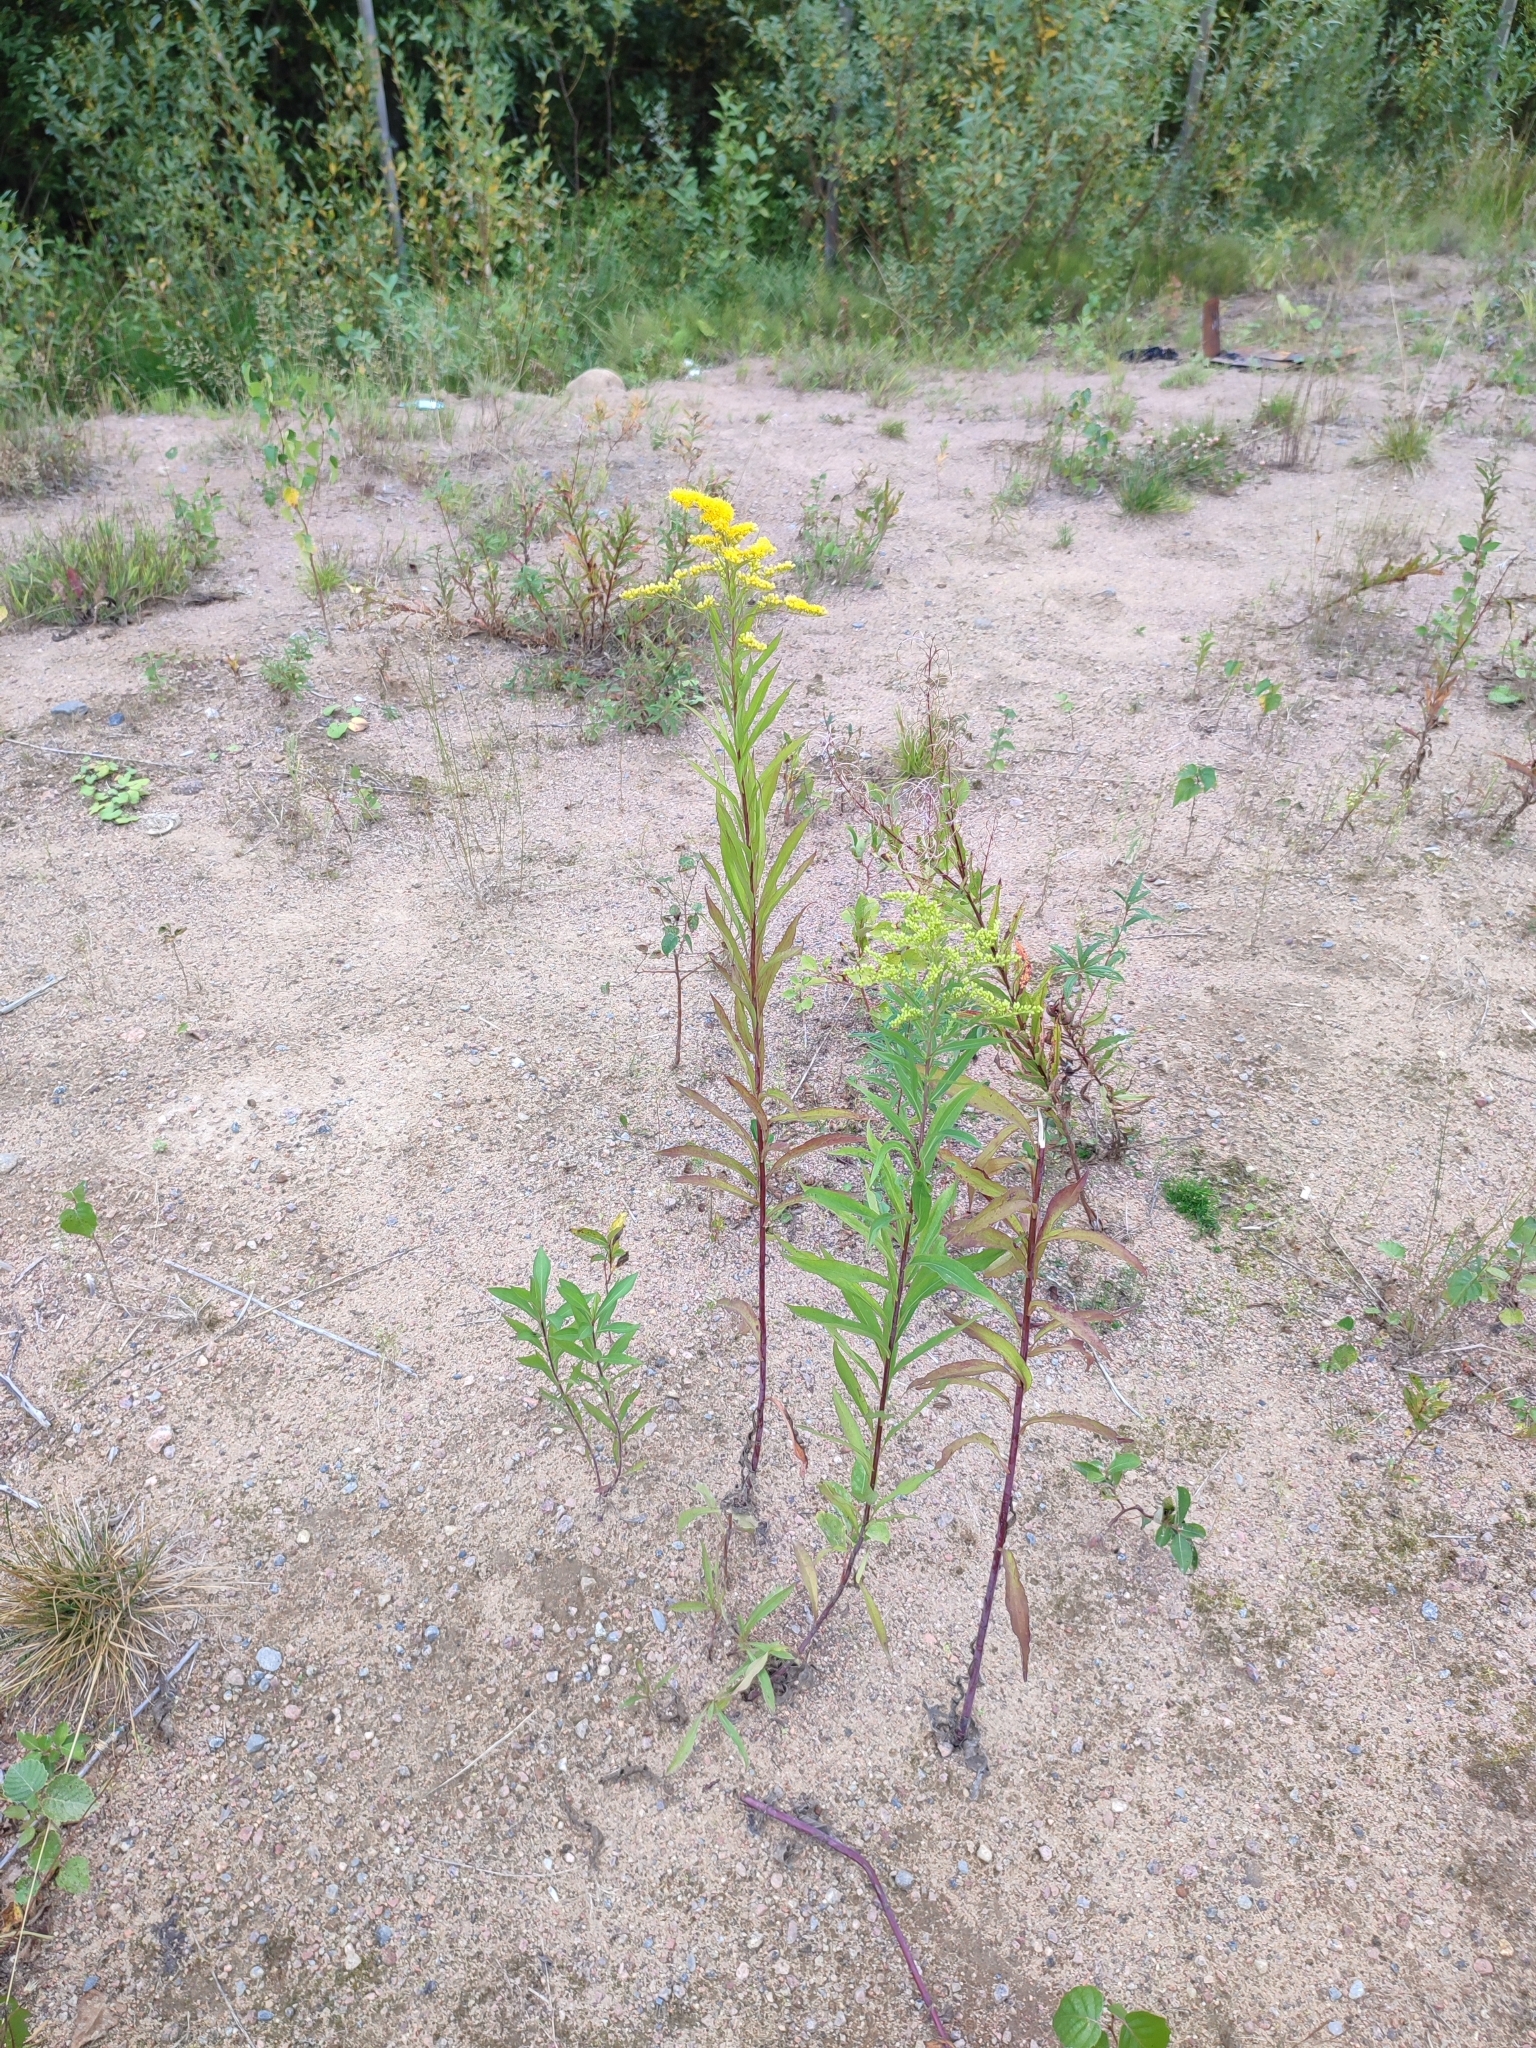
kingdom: Plantae
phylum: Tracheophyta
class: Magnoliopsida
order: Asterales
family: Asteraceae
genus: Solidago
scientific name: Solidago gigantea
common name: Giant goldenrod
